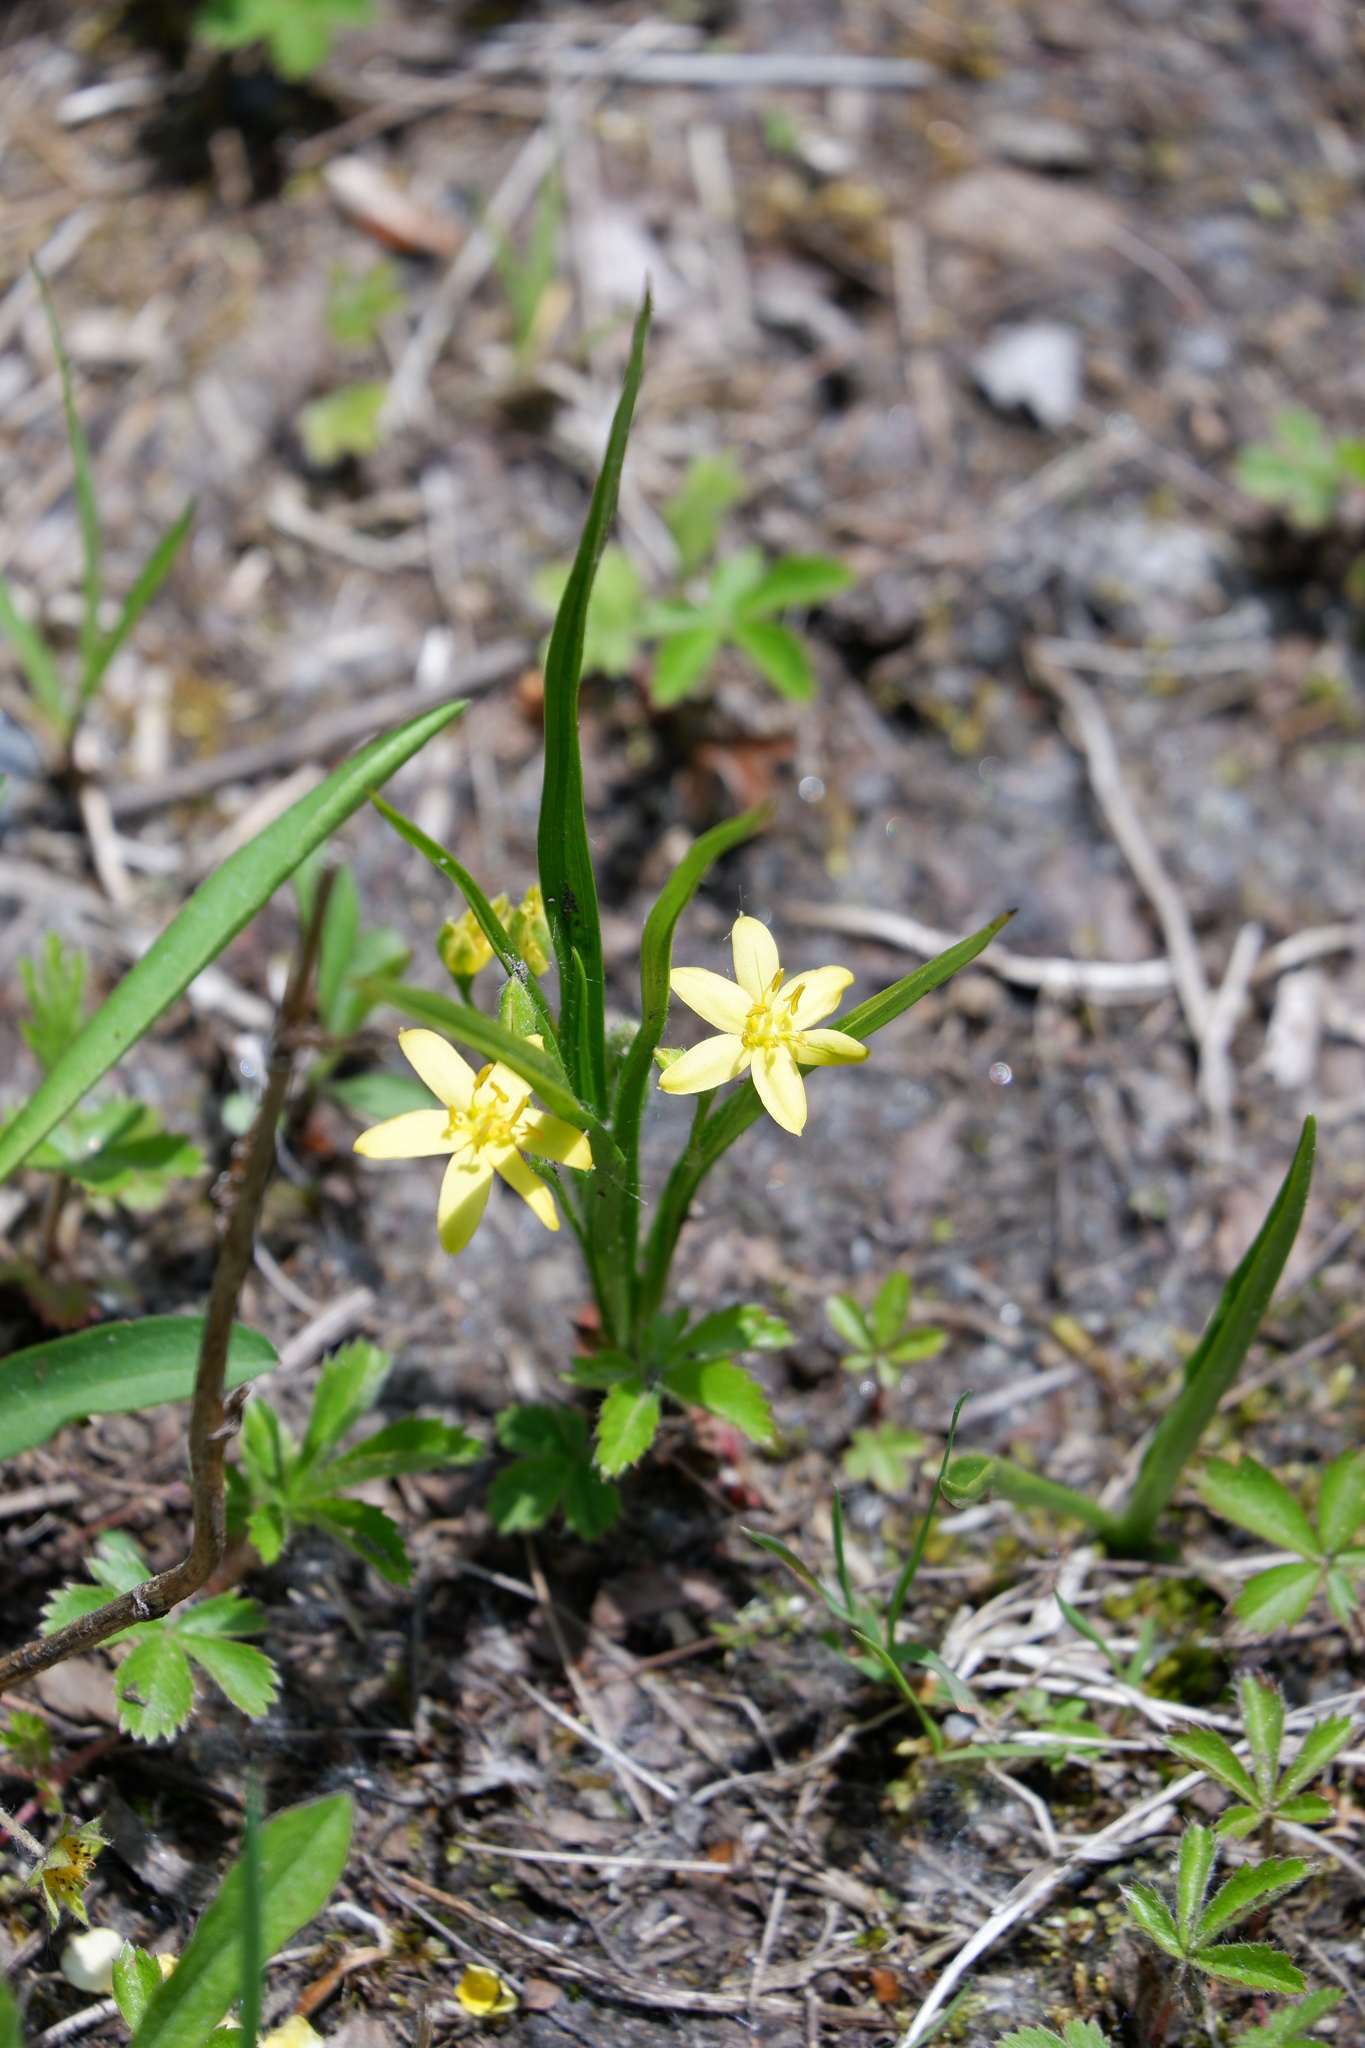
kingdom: Plantae
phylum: Tracheophyta
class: Liliopsida
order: Asparagales
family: Hypoxidaceae
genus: Hypoxis
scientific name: Hypoxis hirsuta
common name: Common goldstar
